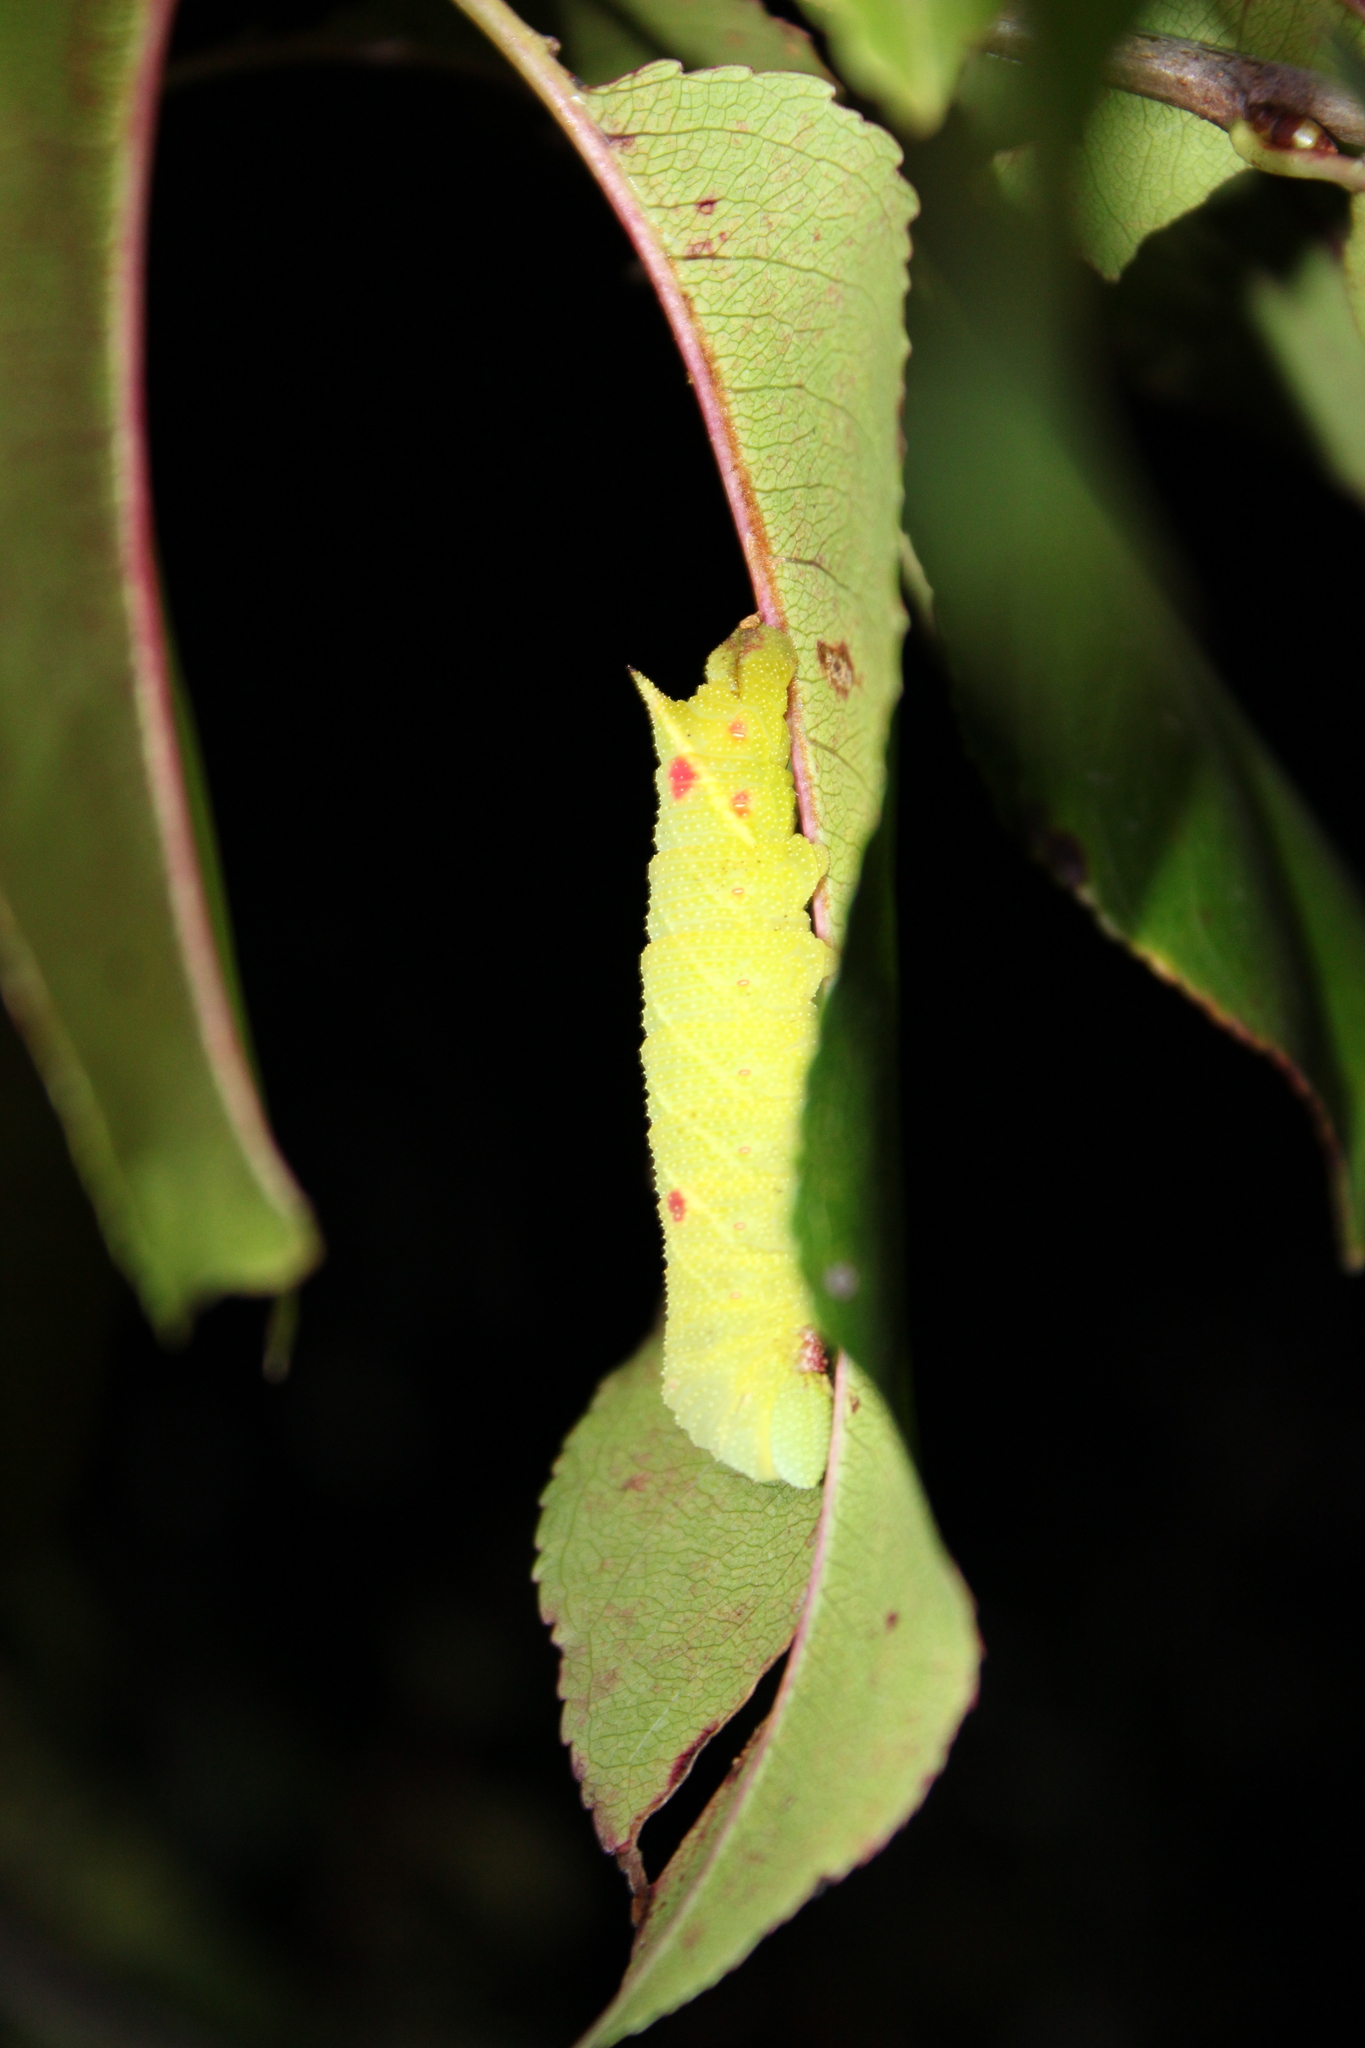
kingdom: Animalia
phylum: Arthropoda
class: Insecta
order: Lepidoptera
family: Sphingidae
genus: Paonias
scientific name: Paonias myops
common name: Small-eyed sphinx
